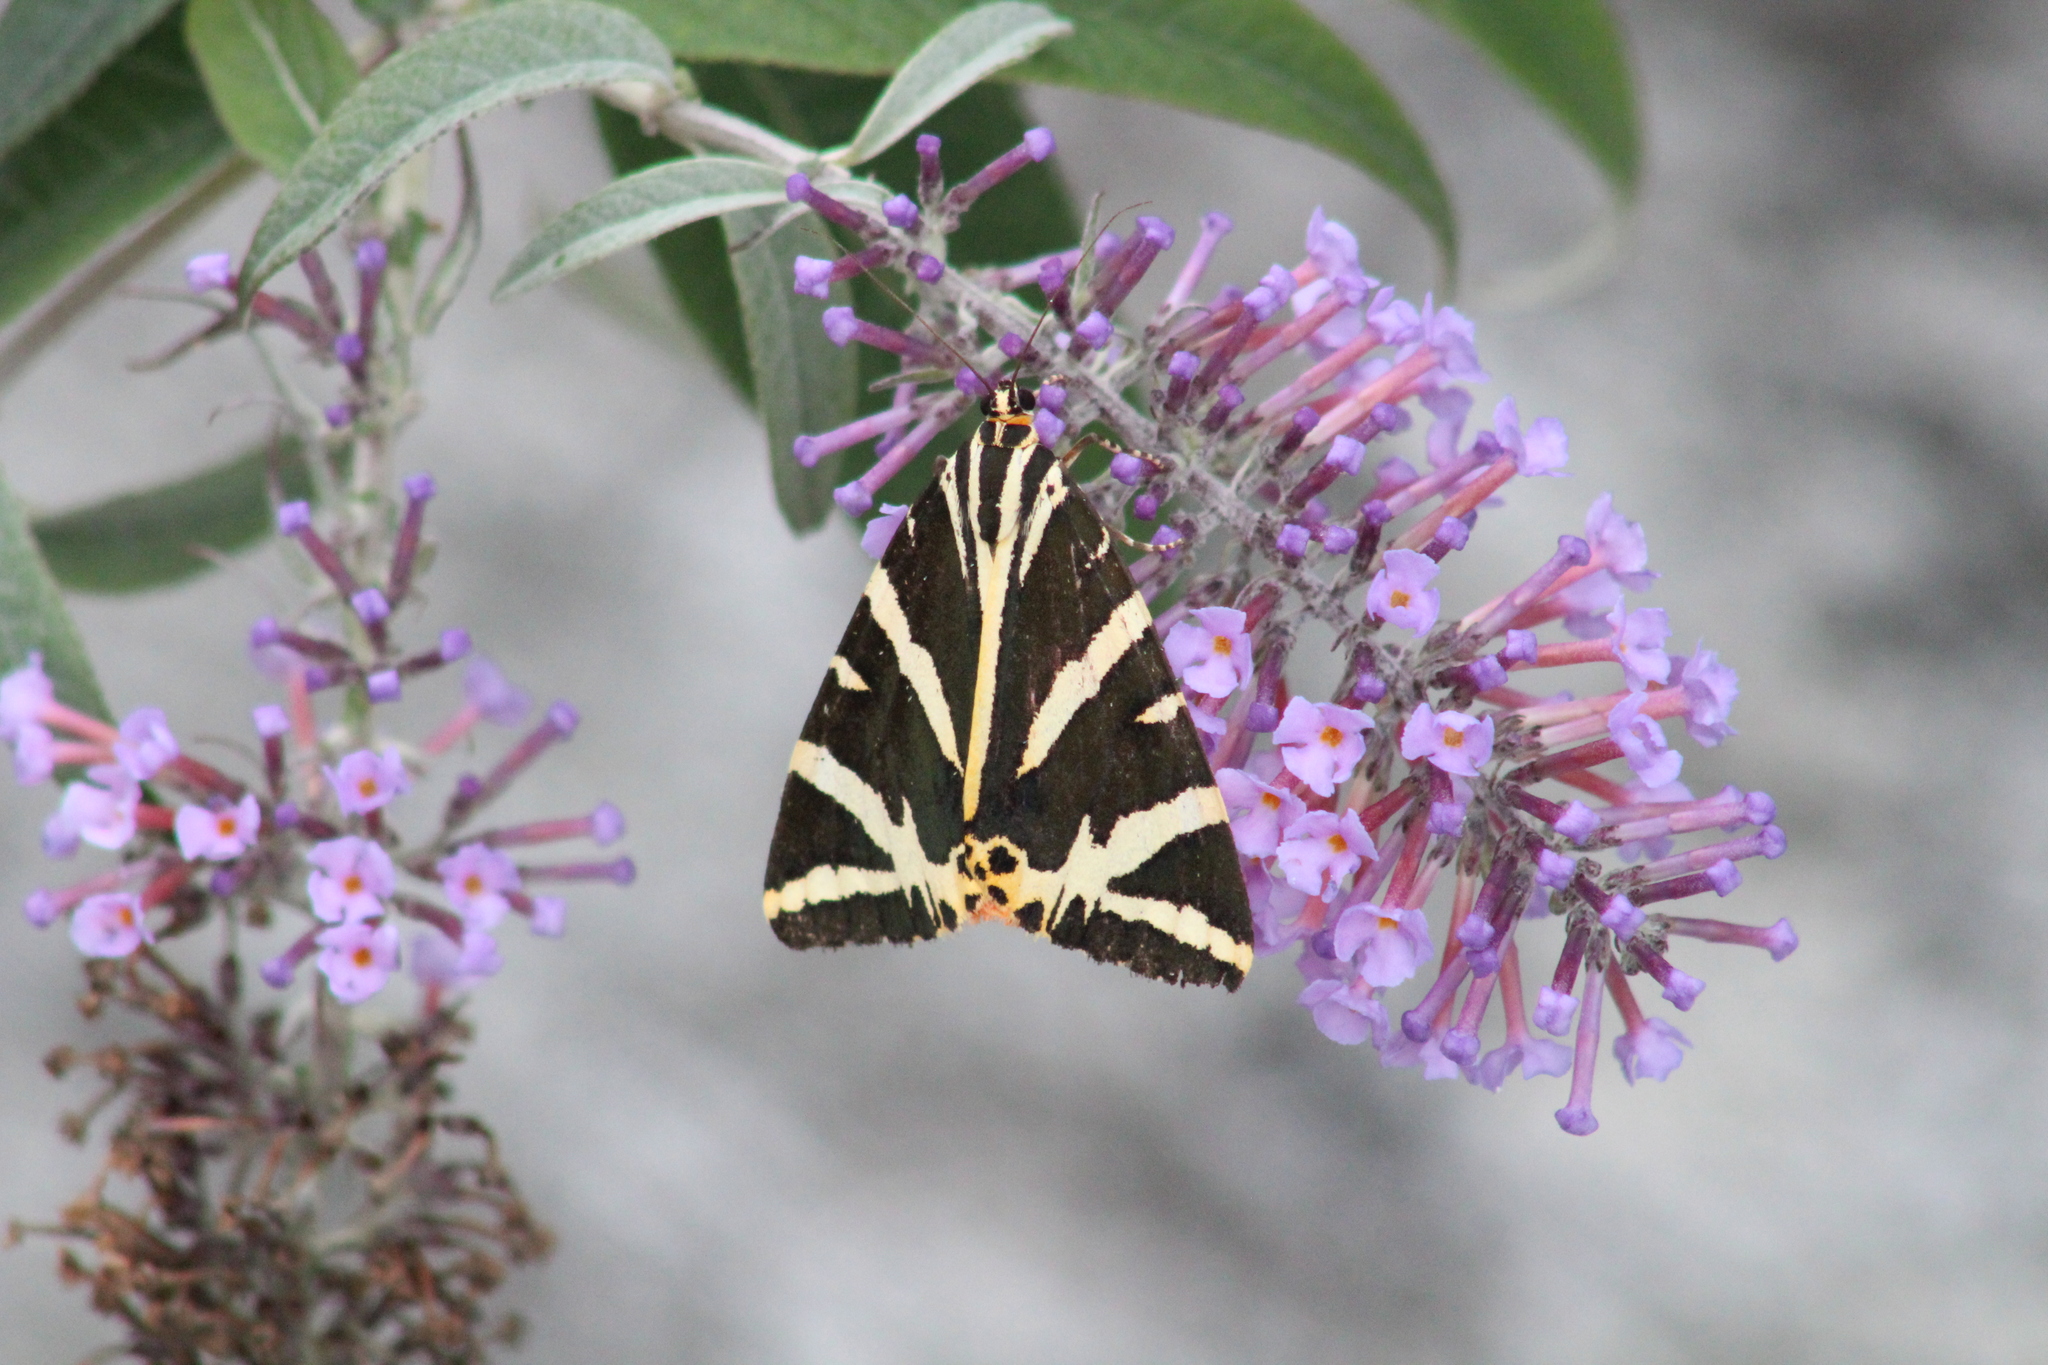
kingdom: Animalia
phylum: Arthropoda
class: Insecta
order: Lepidoptera
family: Erebidae
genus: Euplagia
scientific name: Euplagia quadripunctaria
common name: Jersey tiger
